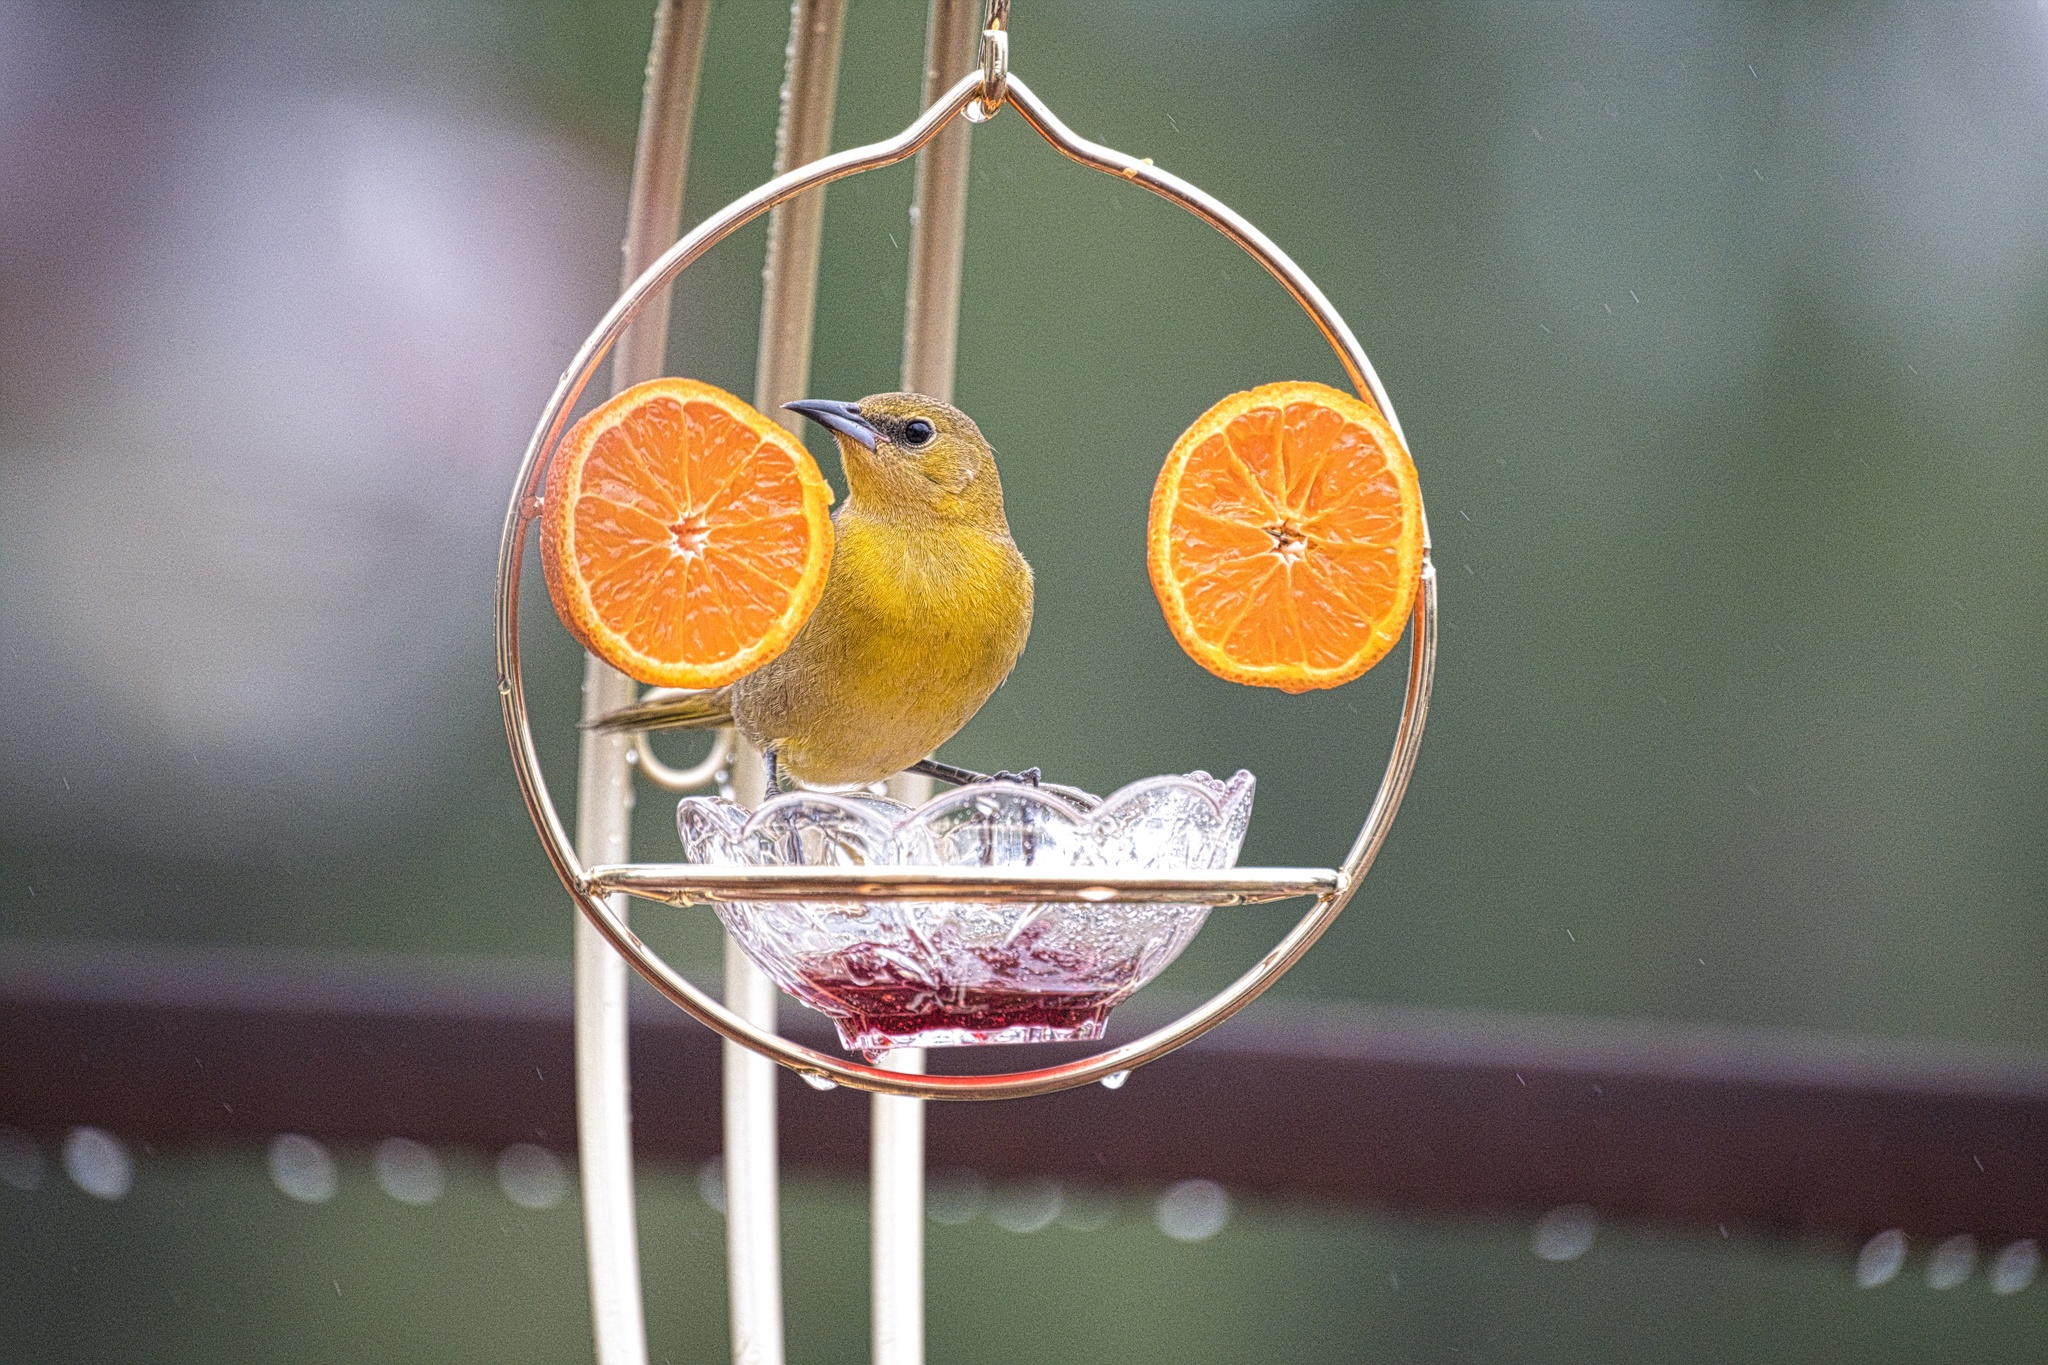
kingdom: Animalia
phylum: Chordata
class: Aves
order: Passeriformes
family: Icteridae
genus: Icterus
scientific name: Icterus cucullatus
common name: Hooded oriole
